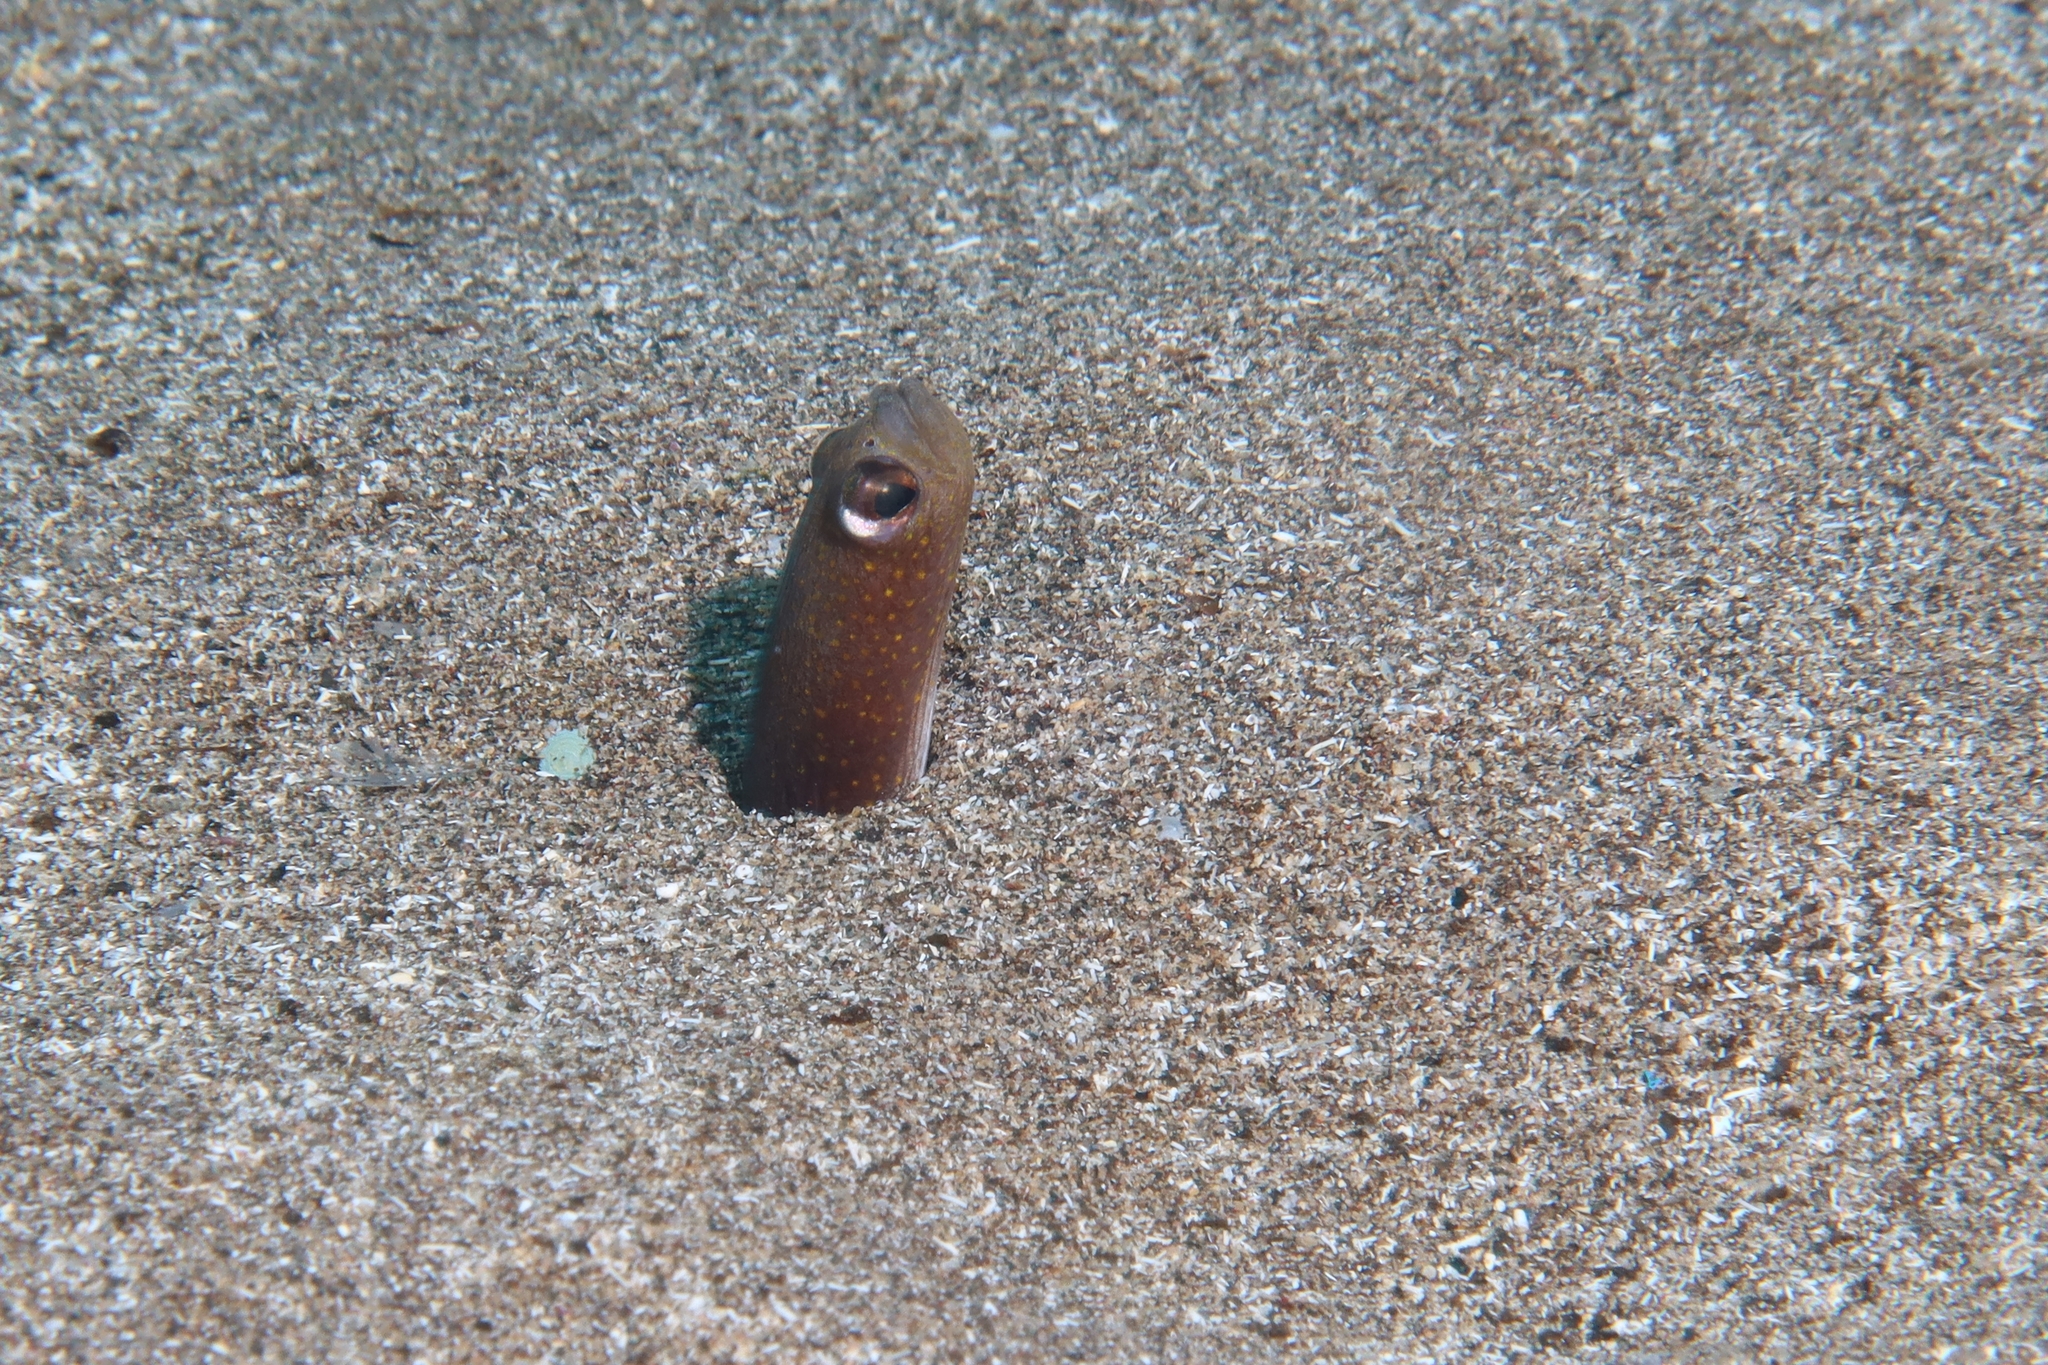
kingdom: Animalia
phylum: Chordata
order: Anguilliformes
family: Congridae
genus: Heteroconger
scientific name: Heteroconger longissimus
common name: Garden eel
